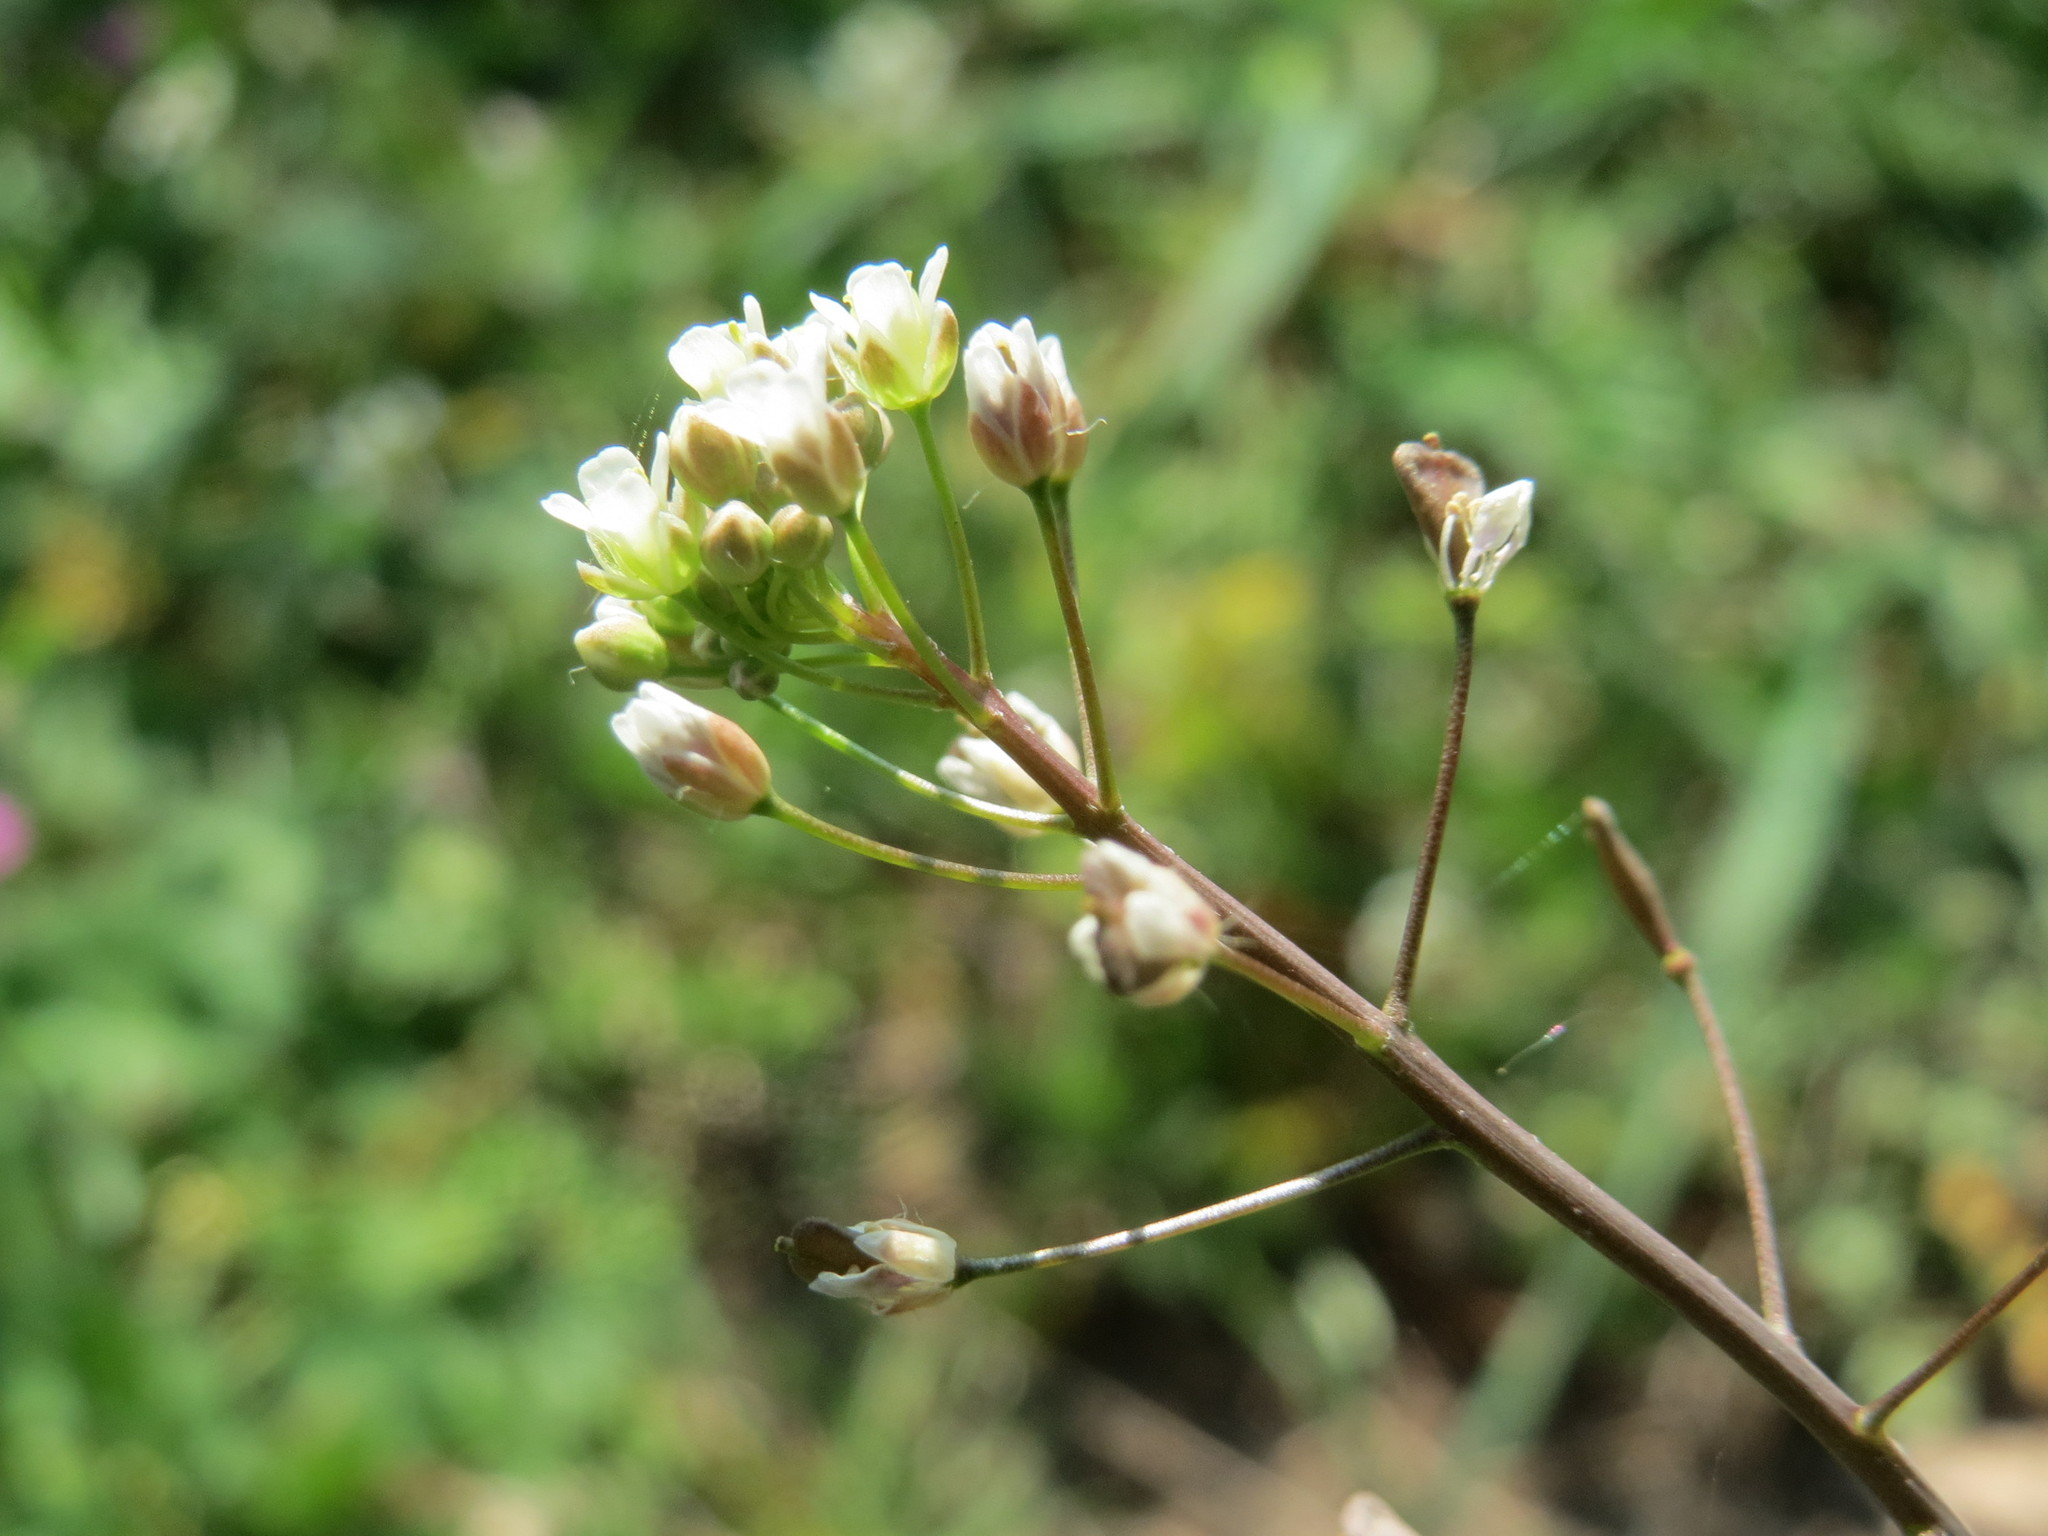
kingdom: Plantae
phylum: Tracheophyta
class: Magnoliopsida
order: Brassicales
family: Brassicaceae
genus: Capsella
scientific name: Capsella bursa-pastoris
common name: Shepherd's purse
